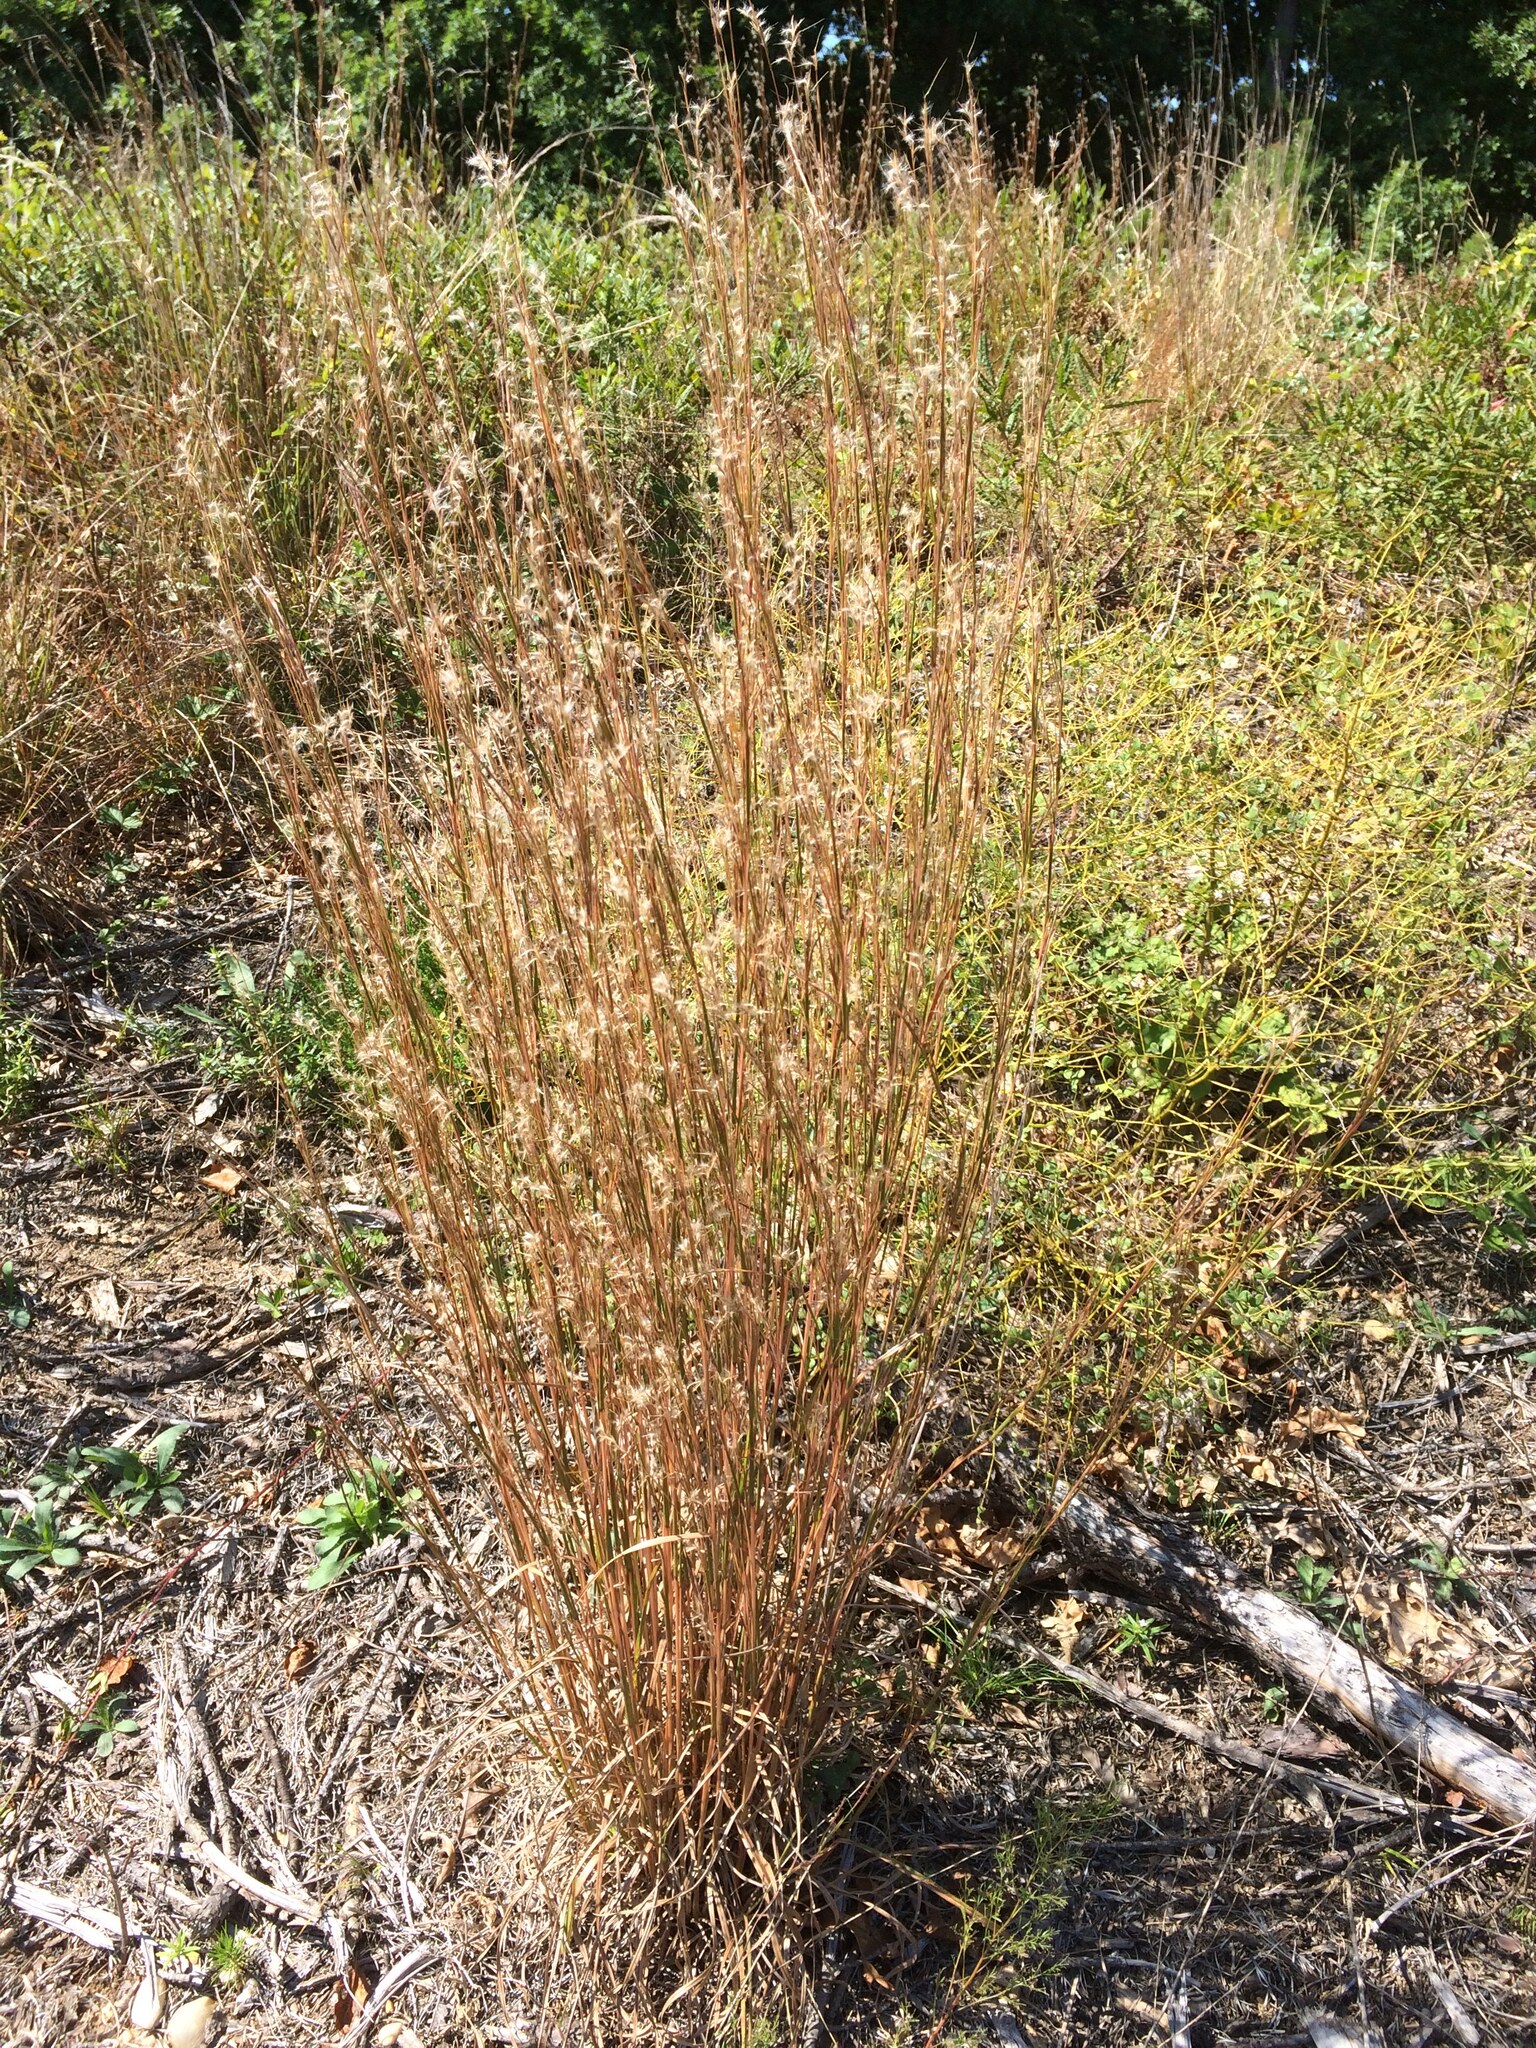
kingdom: Plantae
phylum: Tracheophyta
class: Liliopsida
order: Poales
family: Poaceae
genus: Schizachyrium
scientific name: Schizachyrium scoparium
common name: Little bluestem
